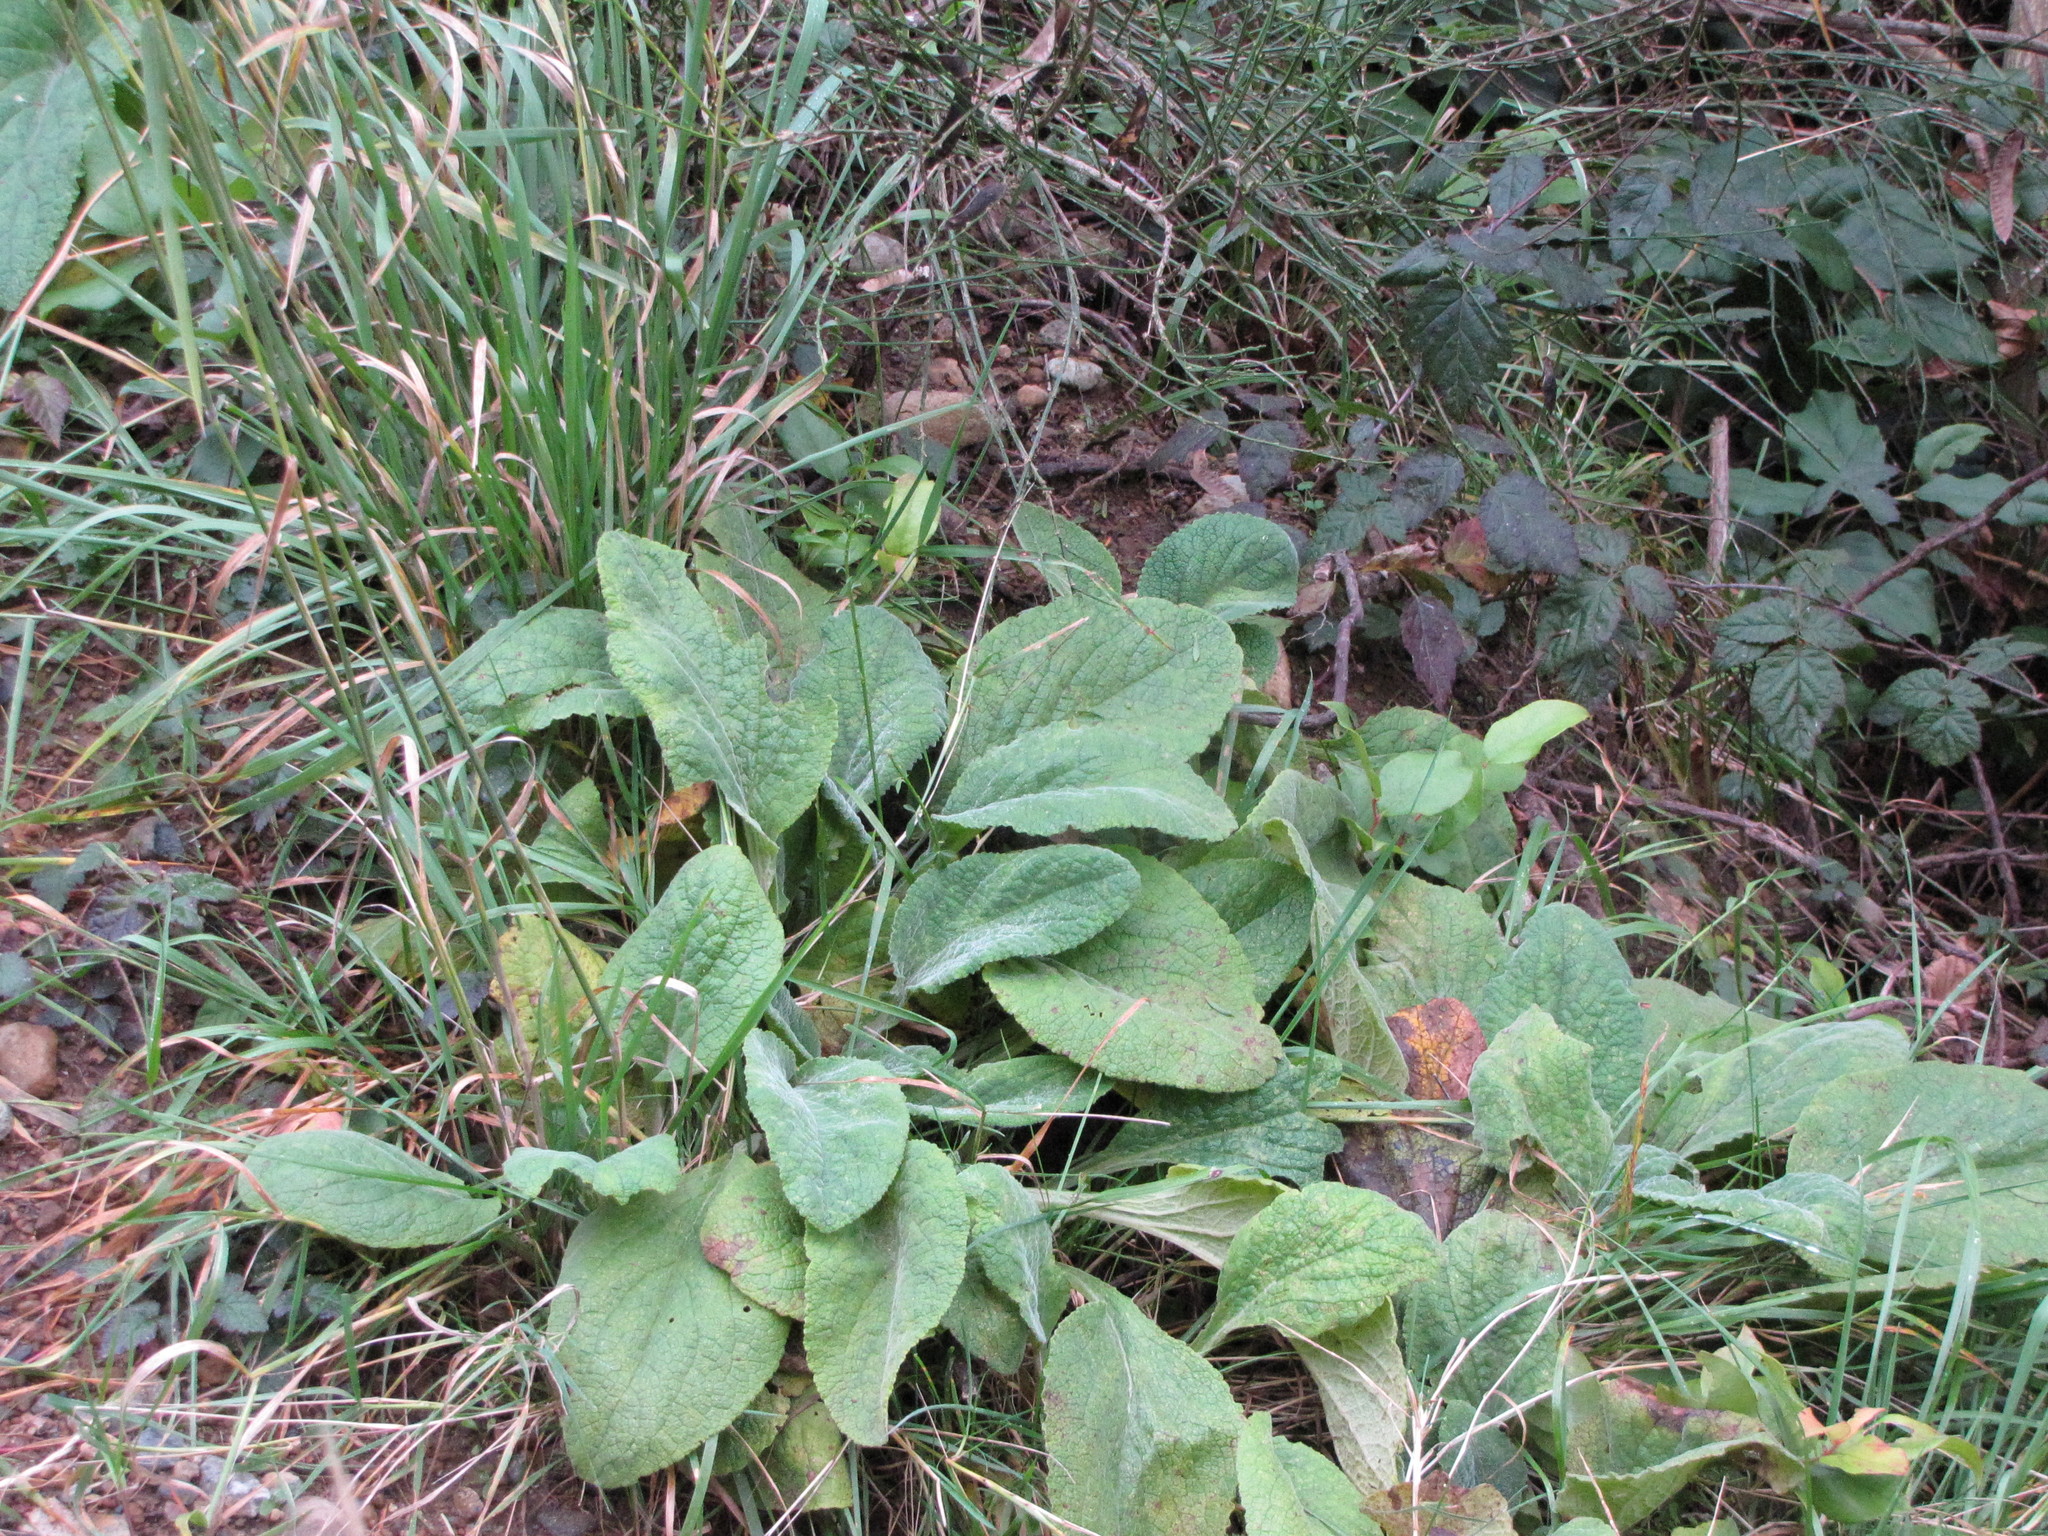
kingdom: Plantae
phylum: Tracheophyta
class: Magnoliopsida
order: Lamiales
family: Plantaginaceae
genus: Digitalis
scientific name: Digitalis purpurea
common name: Foxglove
